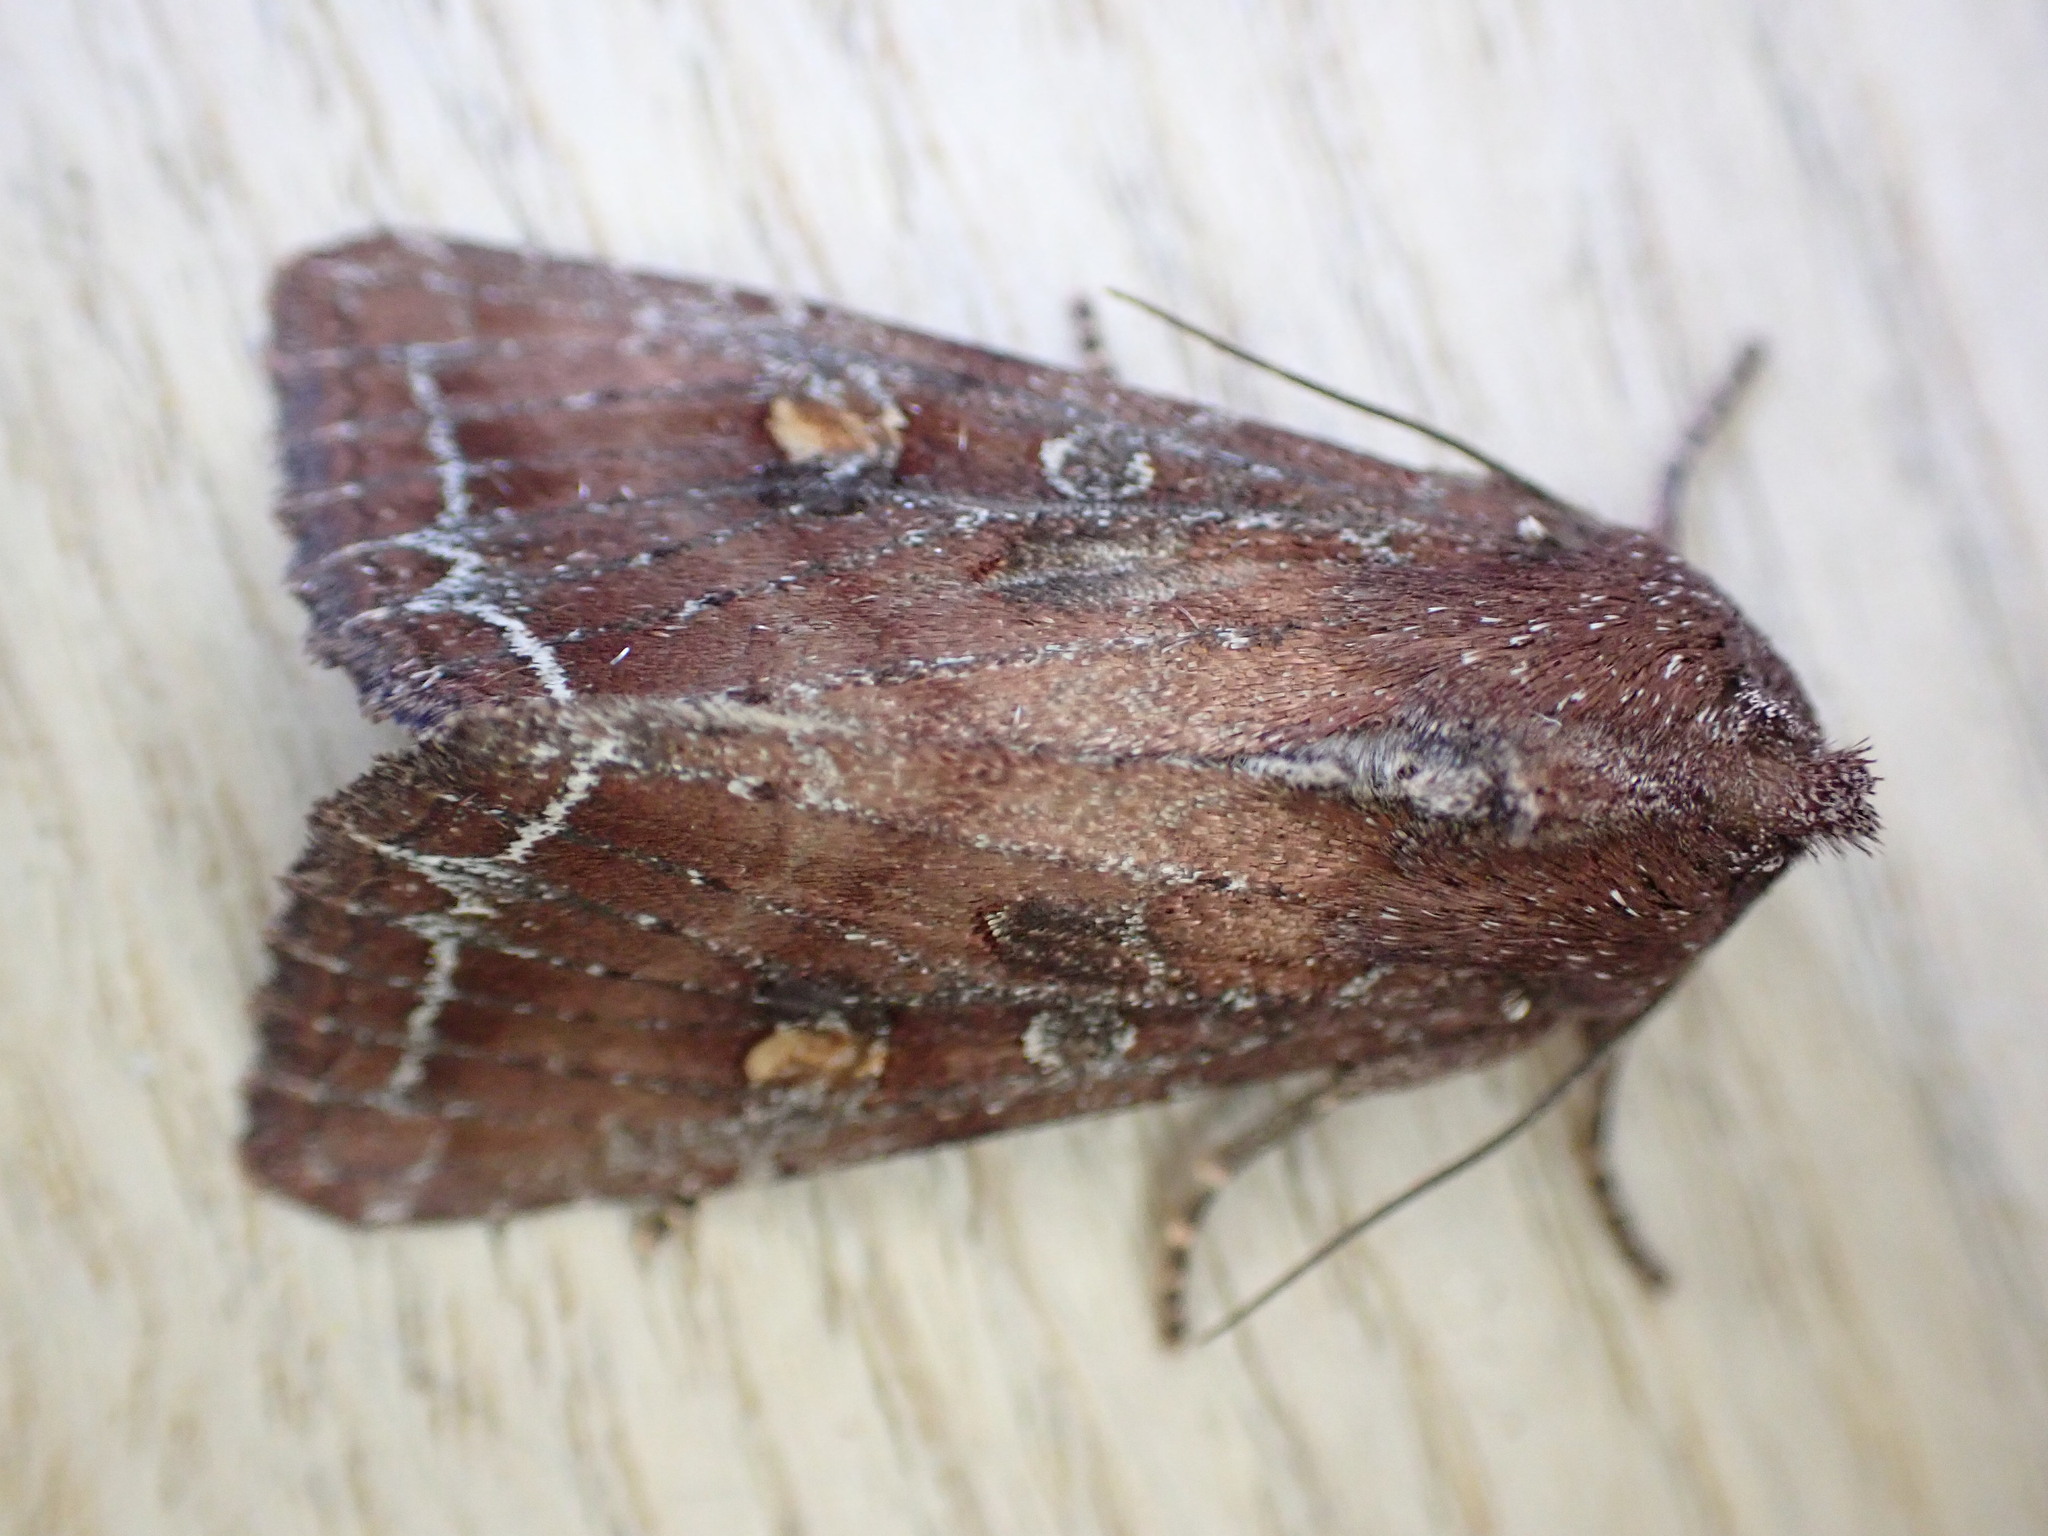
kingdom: Animalia
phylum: Arthropoda
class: Insecta
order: Lepidoptera
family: Noctuidae
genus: Lacanobia
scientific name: Lacanobia oleracea
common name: Bright-line brown-eye
